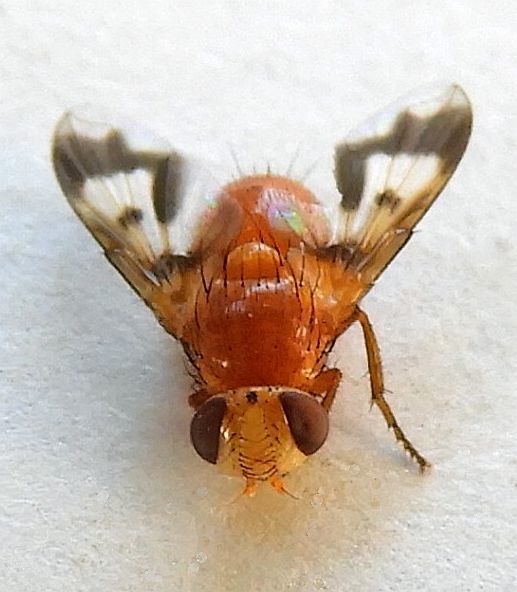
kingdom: Animalia
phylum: Arthropoda
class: Insecta
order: Diptera
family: Tachinidae
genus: Oestrophasia
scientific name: Oestrophasia calva
